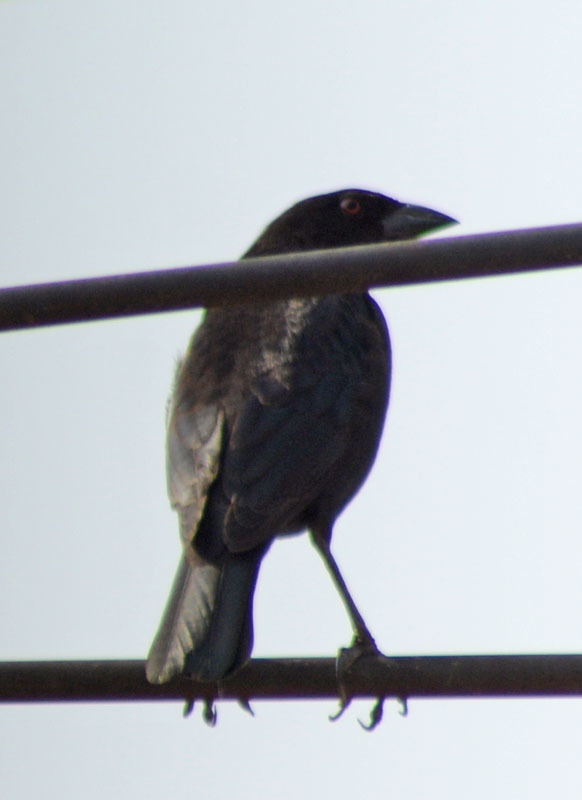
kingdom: Animalia
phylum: Chordata
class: Aves
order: Passeriformes
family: Icteridae
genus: Molothrus
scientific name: Molothrus aeneus
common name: Bronzed cowbird
